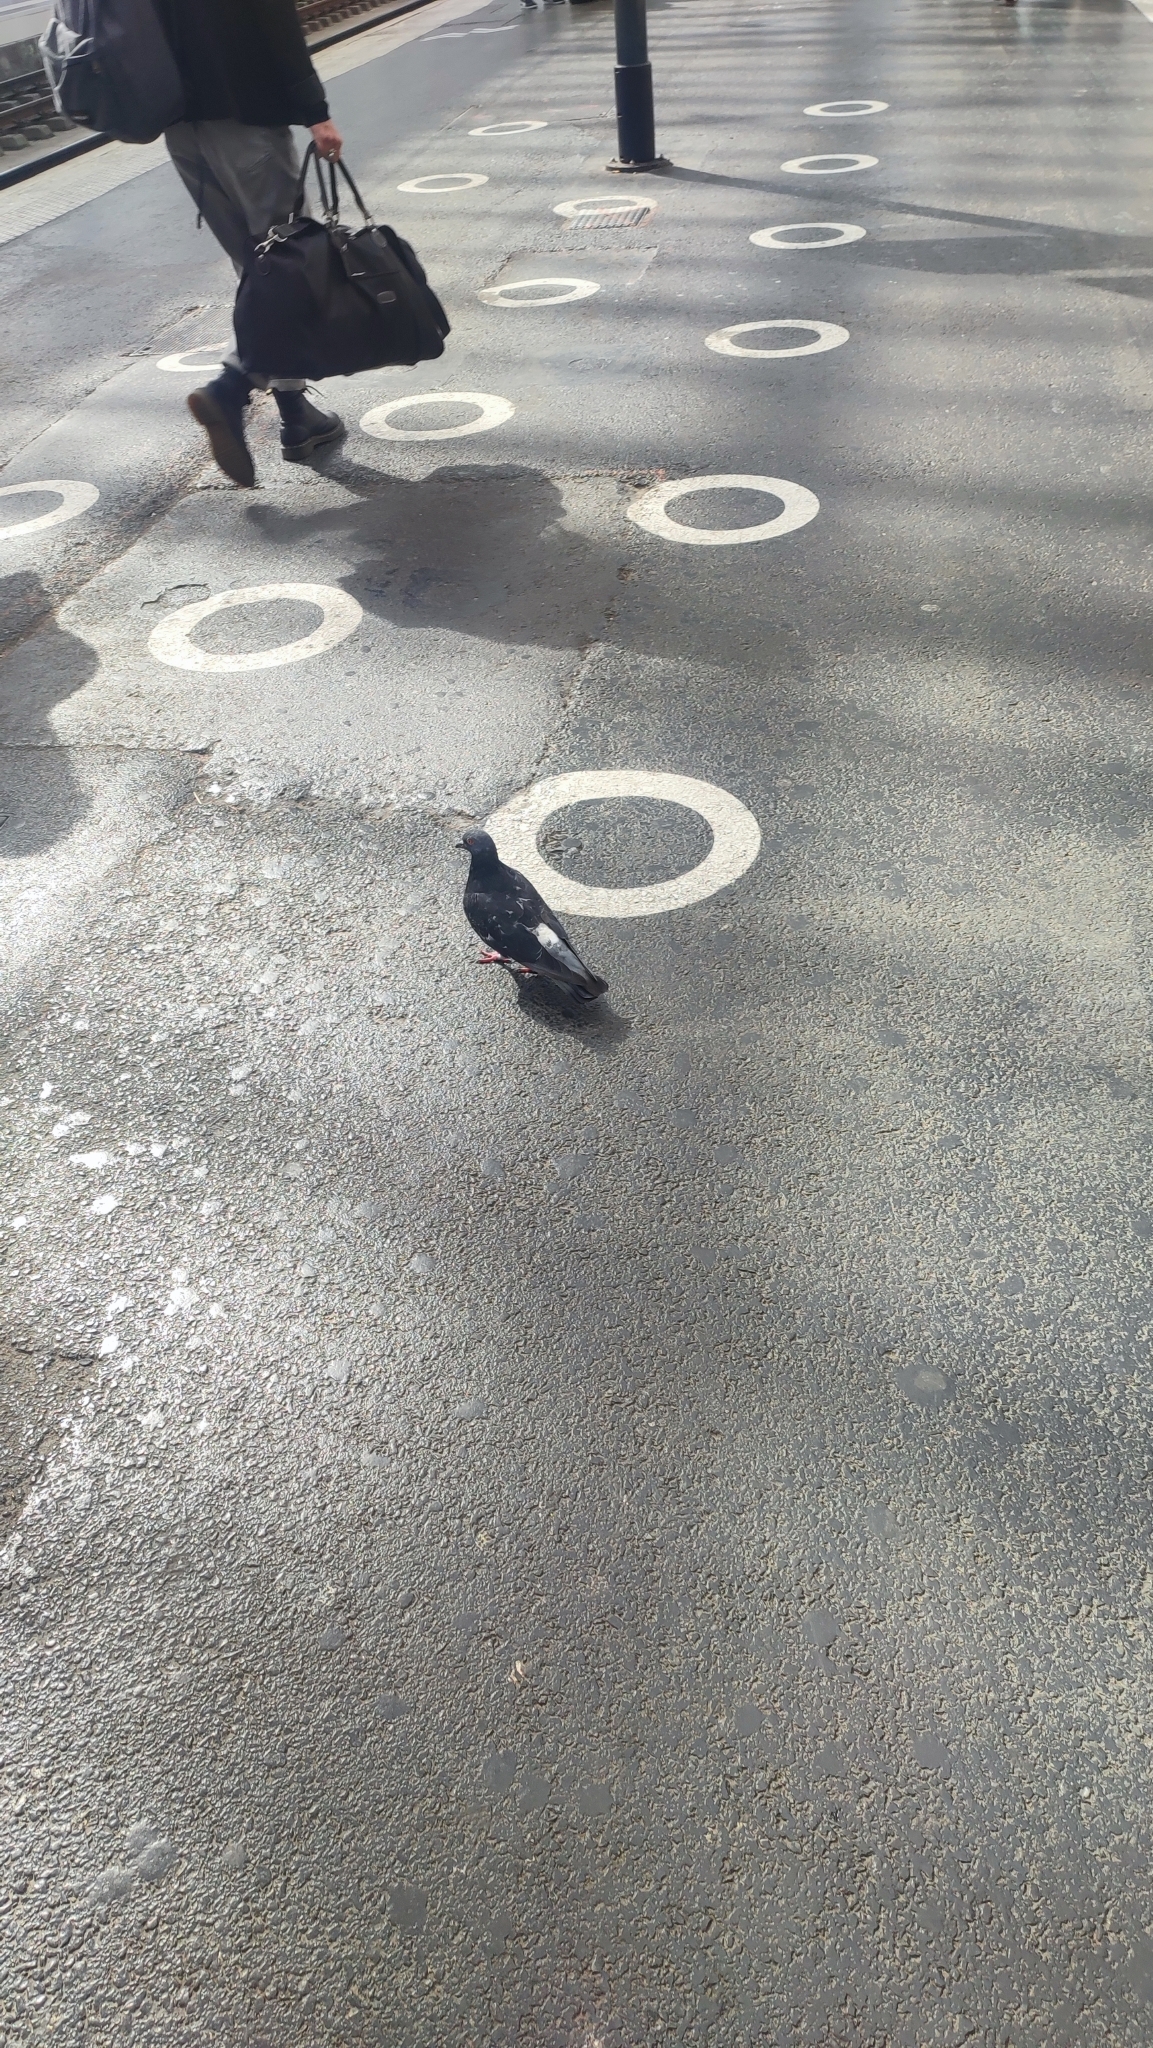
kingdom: Animalia
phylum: Chordata
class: Aves
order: Columbiformes
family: Columbidae
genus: Columba
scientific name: Columba livia
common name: Rock pigeon
